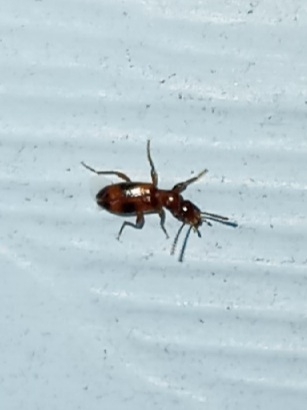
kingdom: Animalia
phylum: Arthropoda
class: Insecta
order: Coleoptera
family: Anthicidae
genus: Vacusus
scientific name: Vacusus vicinus
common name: Antlike flower beetle
